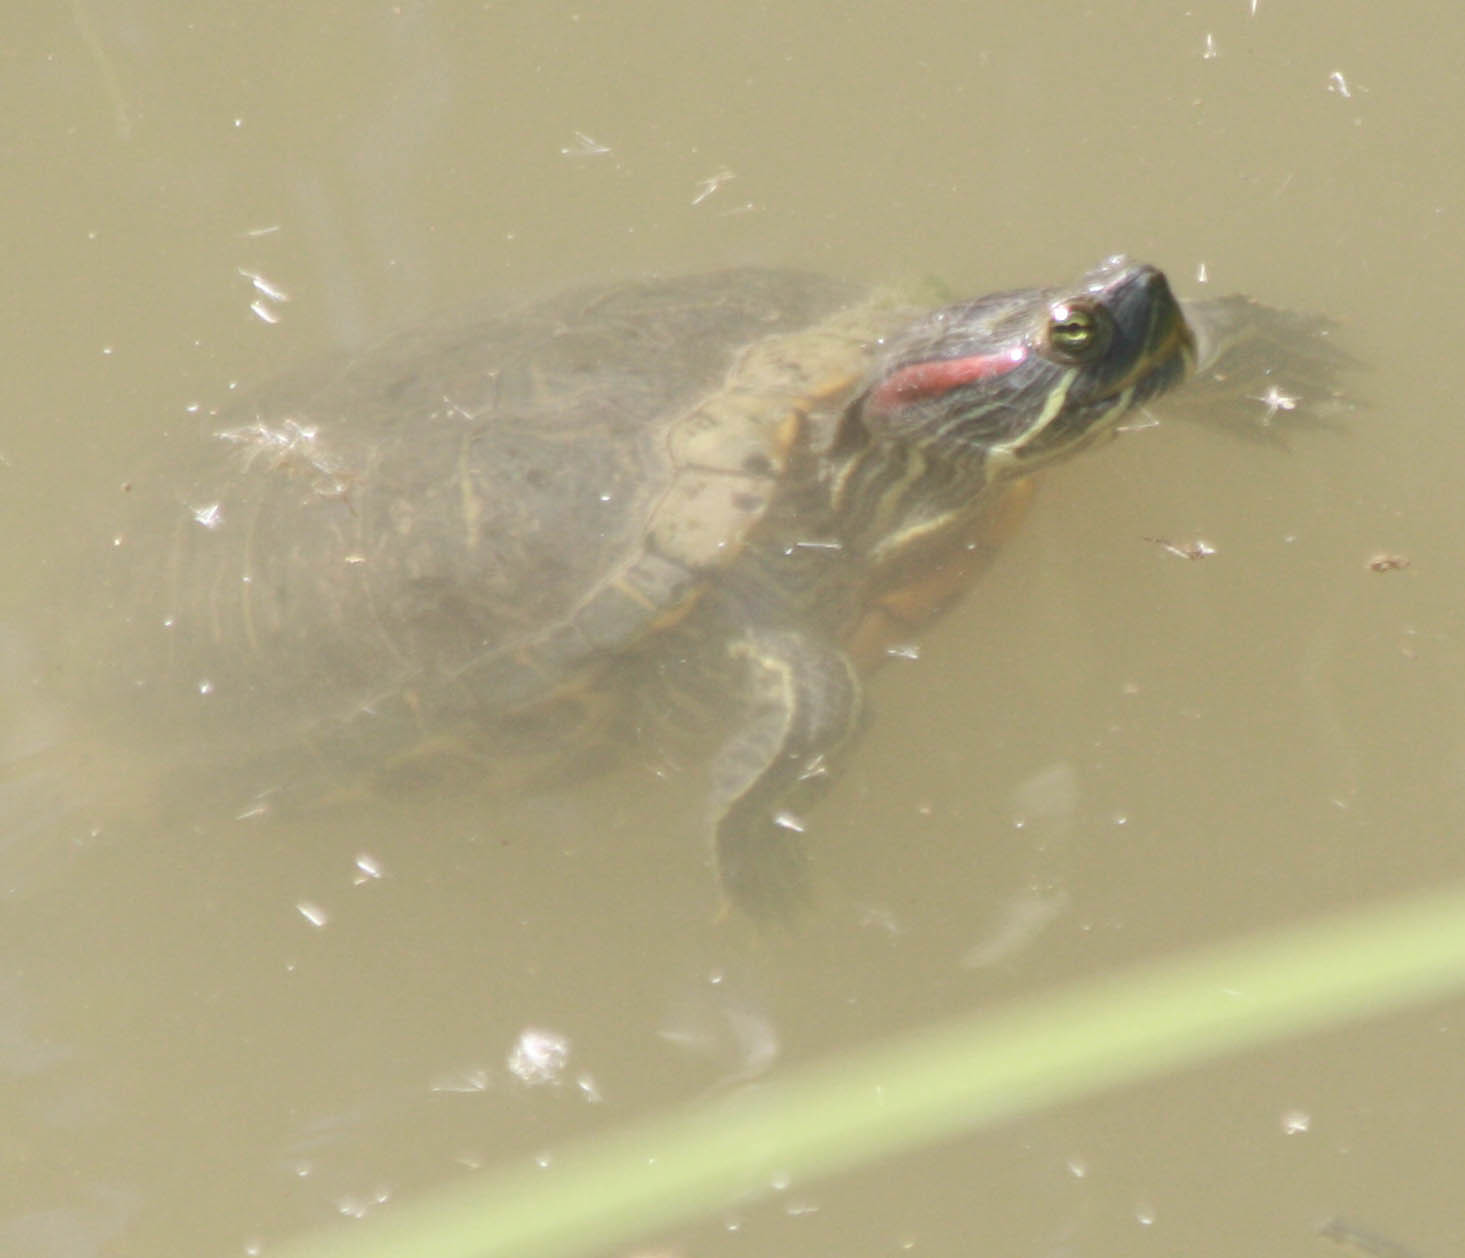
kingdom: Animalia
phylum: Chordata
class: Testudines
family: Emydidae
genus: Trachemys
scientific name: Trachemys scripta
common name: Slider
